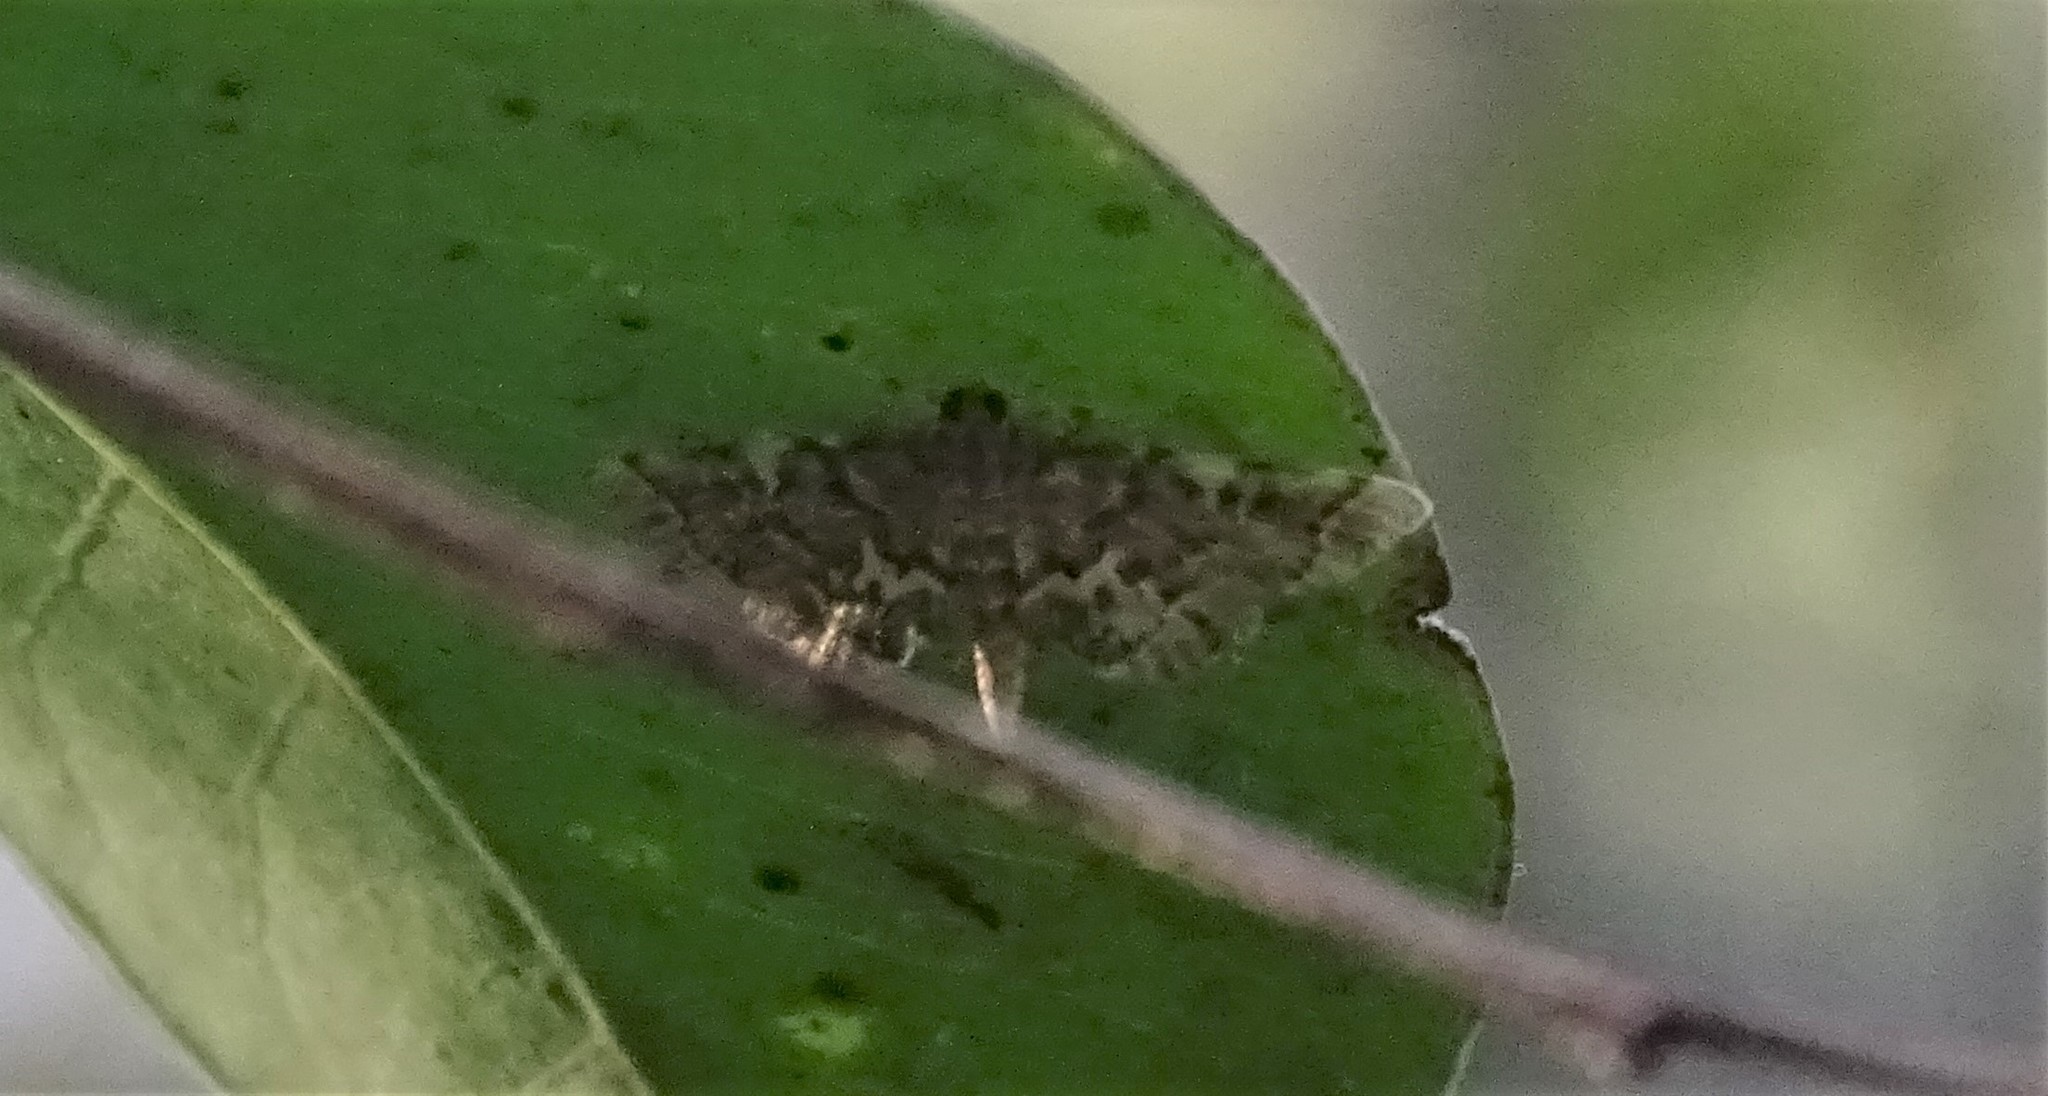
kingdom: Animalia
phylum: Arthropoda
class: Insecta
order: Lepidoptera
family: Crambidae
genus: Anageshna
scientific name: Anageshna primordialis
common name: Yellow-spotted webworm moth
